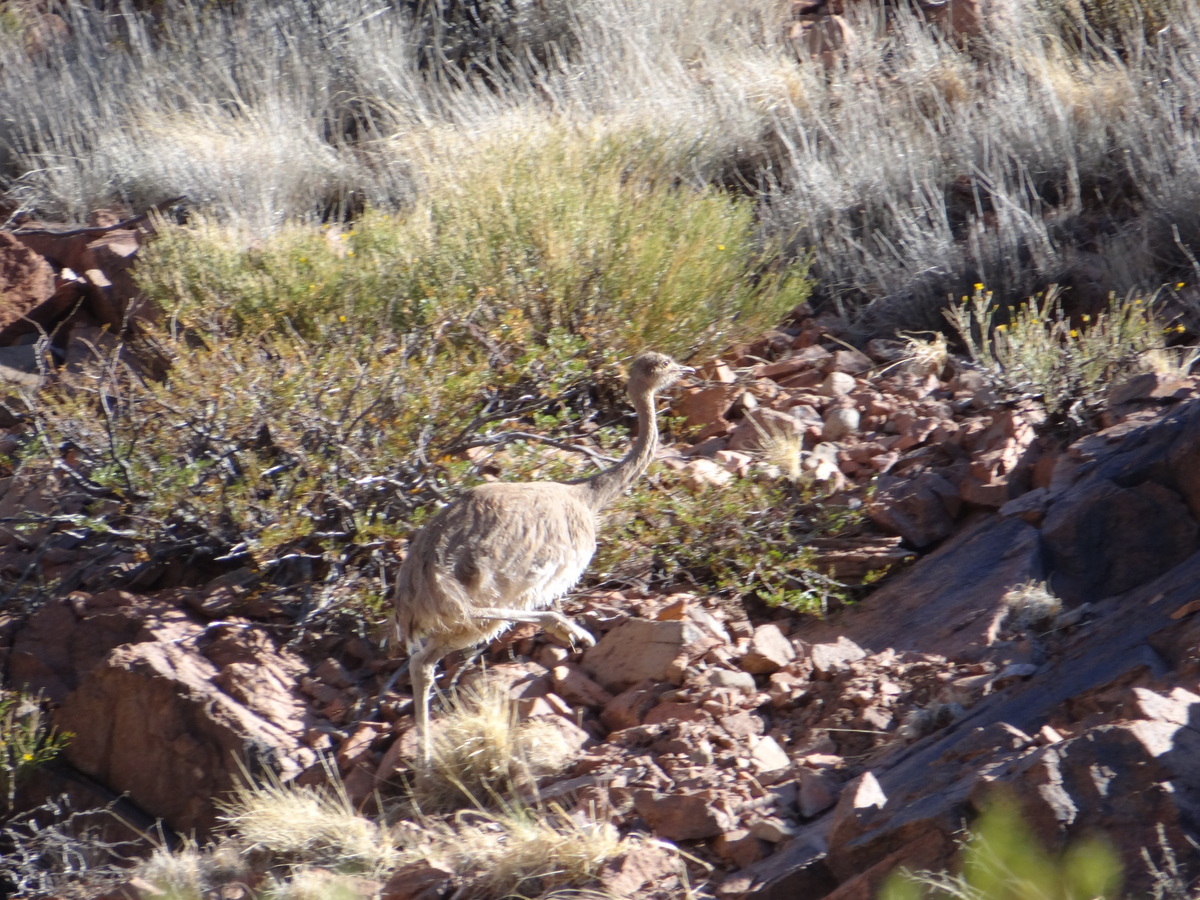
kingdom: Animalia
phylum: Chordata
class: Aves
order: Rheiformes
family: Rheidae
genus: Rhea
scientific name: Rhea pennata
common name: Lesser rhea
